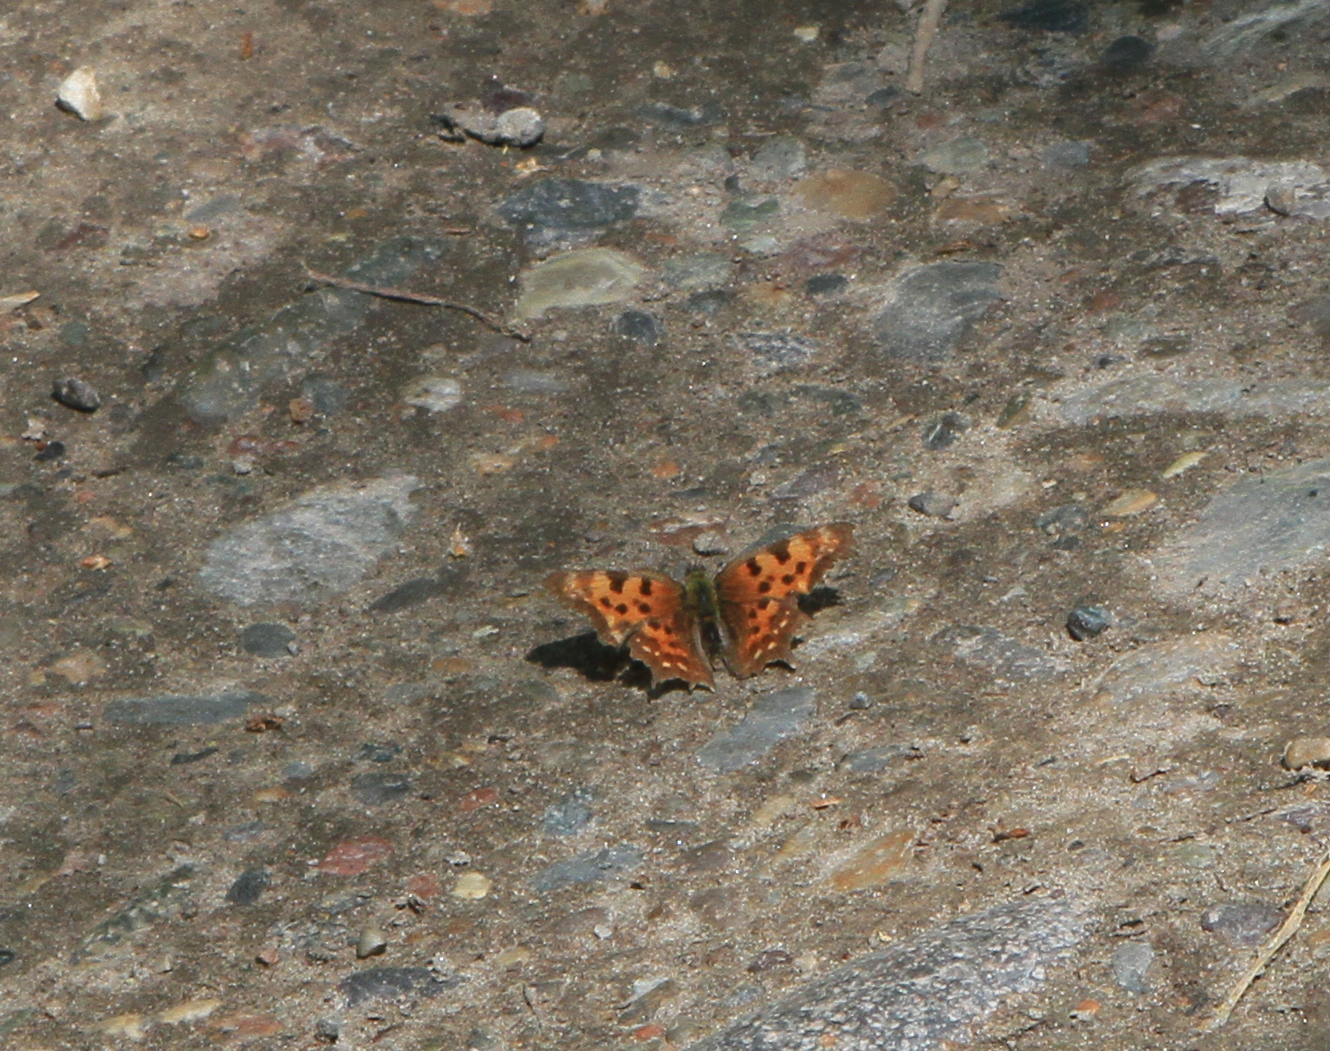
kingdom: Animalia
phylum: Arthropoda
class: Insecta
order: Lepidoptera
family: Nymphalidae
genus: Polygonia
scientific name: Polygonia c-album
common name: Comma
